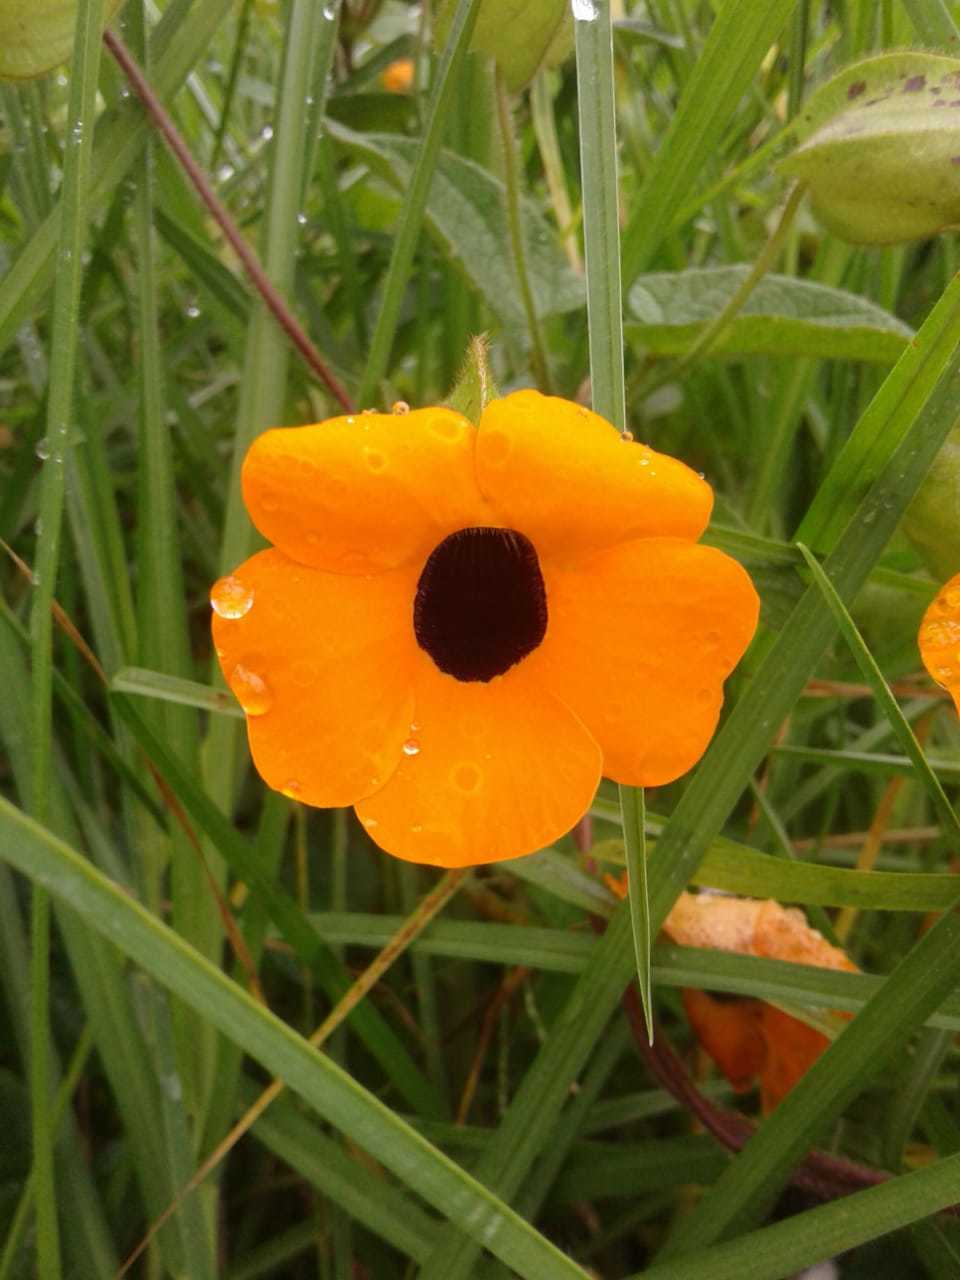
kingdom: Plantae
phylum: Tracheophyta
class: Magnoliopsida
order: Lamiales
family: Acanthaceae
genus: Thunbergia
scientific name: Thunbergia alata
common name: Blackeyed susan vine
